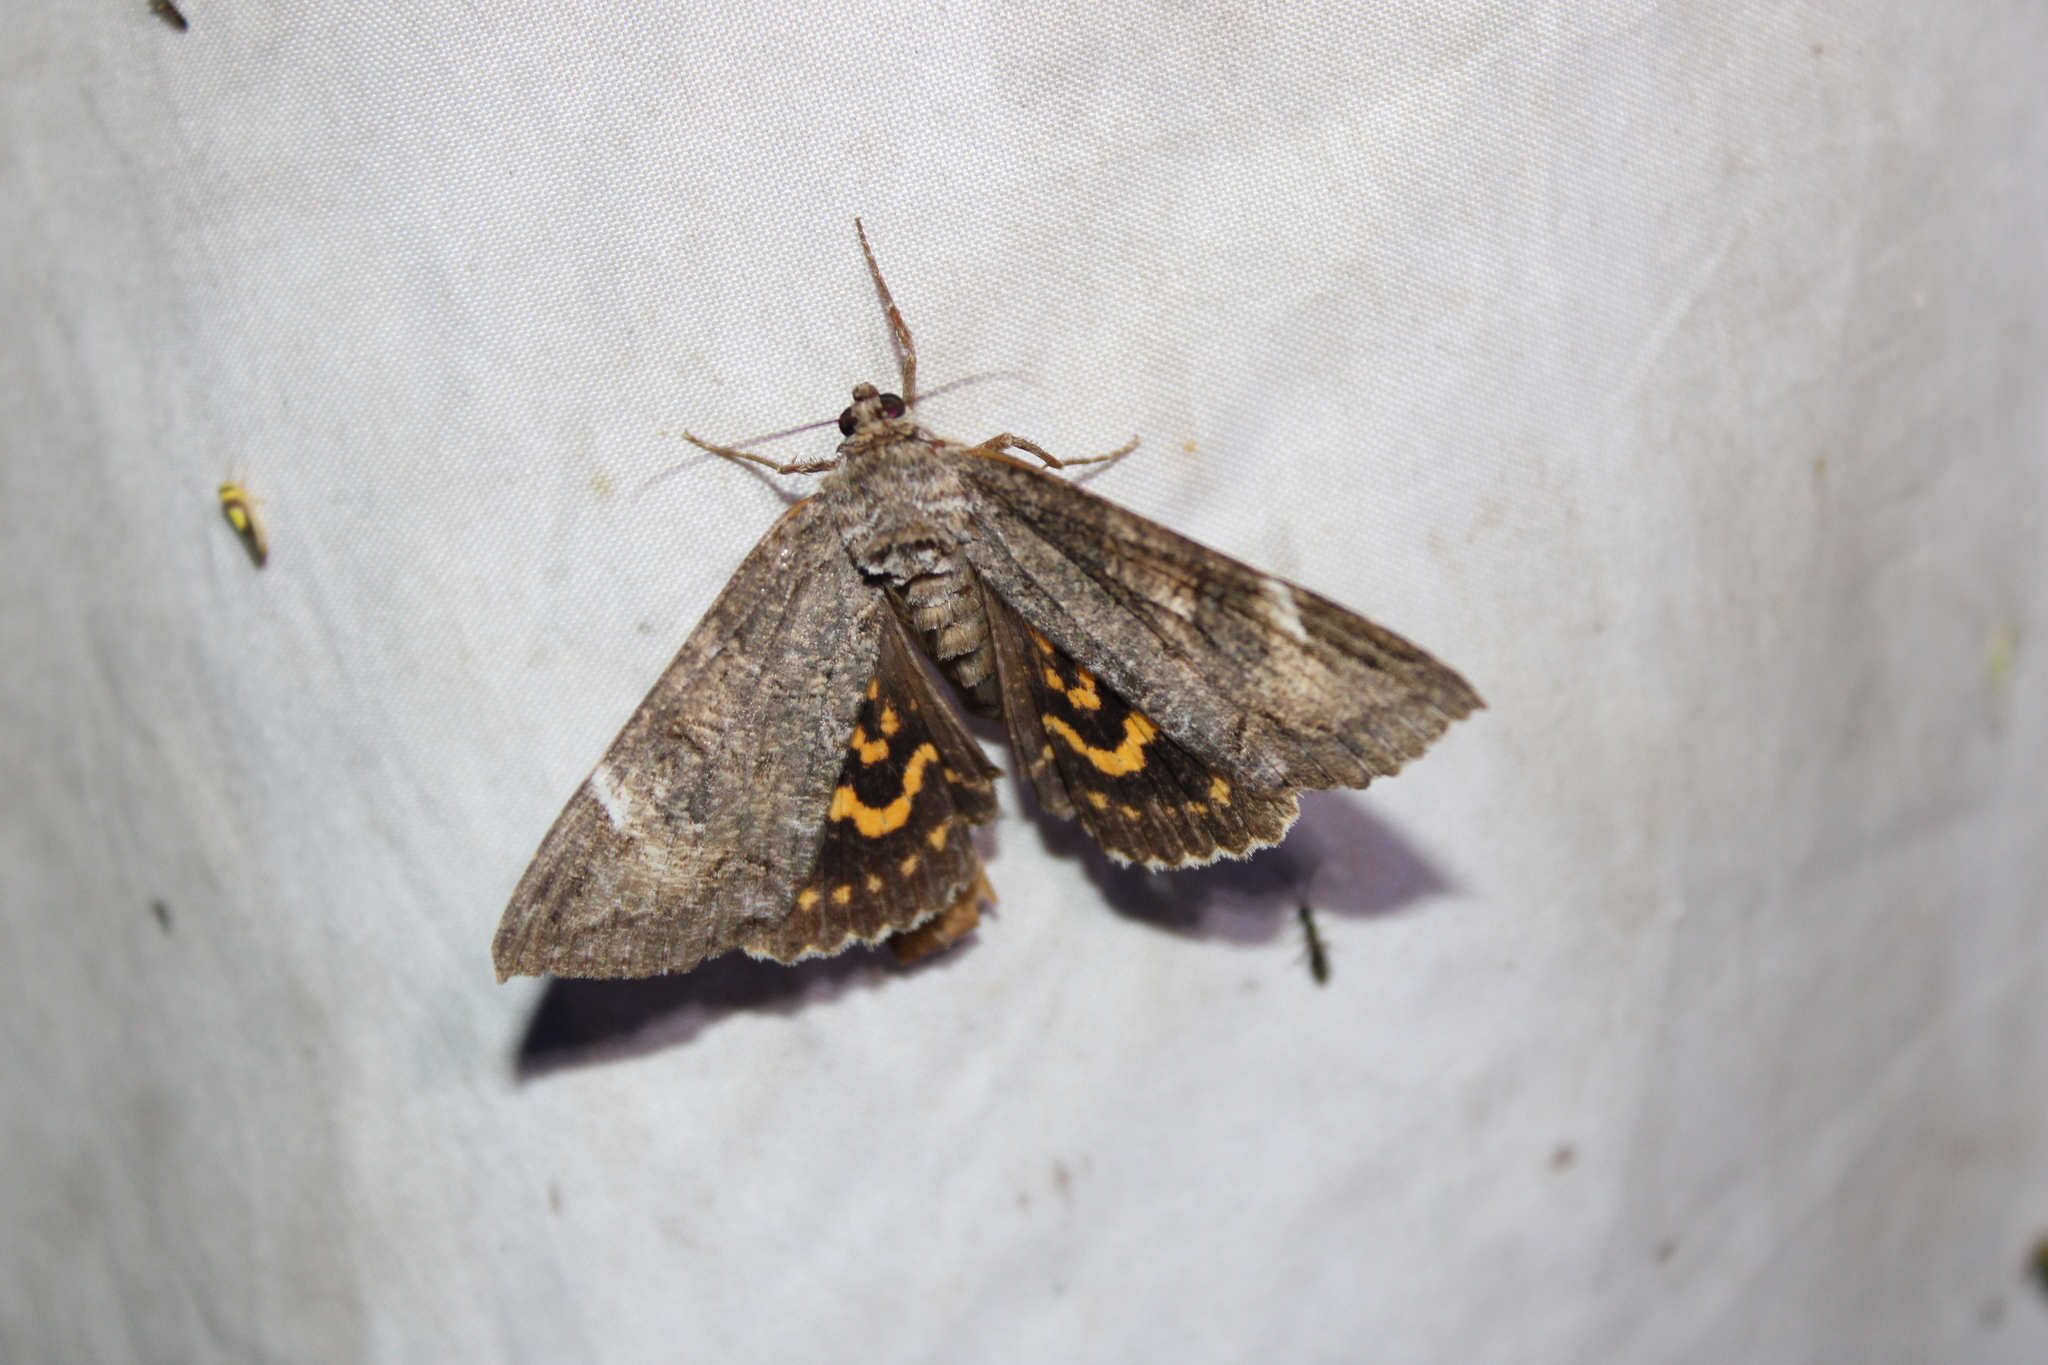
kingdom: Animalia
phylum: Arthropoda
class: Insecta
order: Lepidoptera
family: Erebidae
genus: Euparthenos
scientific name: Euparthenos nubilis
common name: Locust underwing
